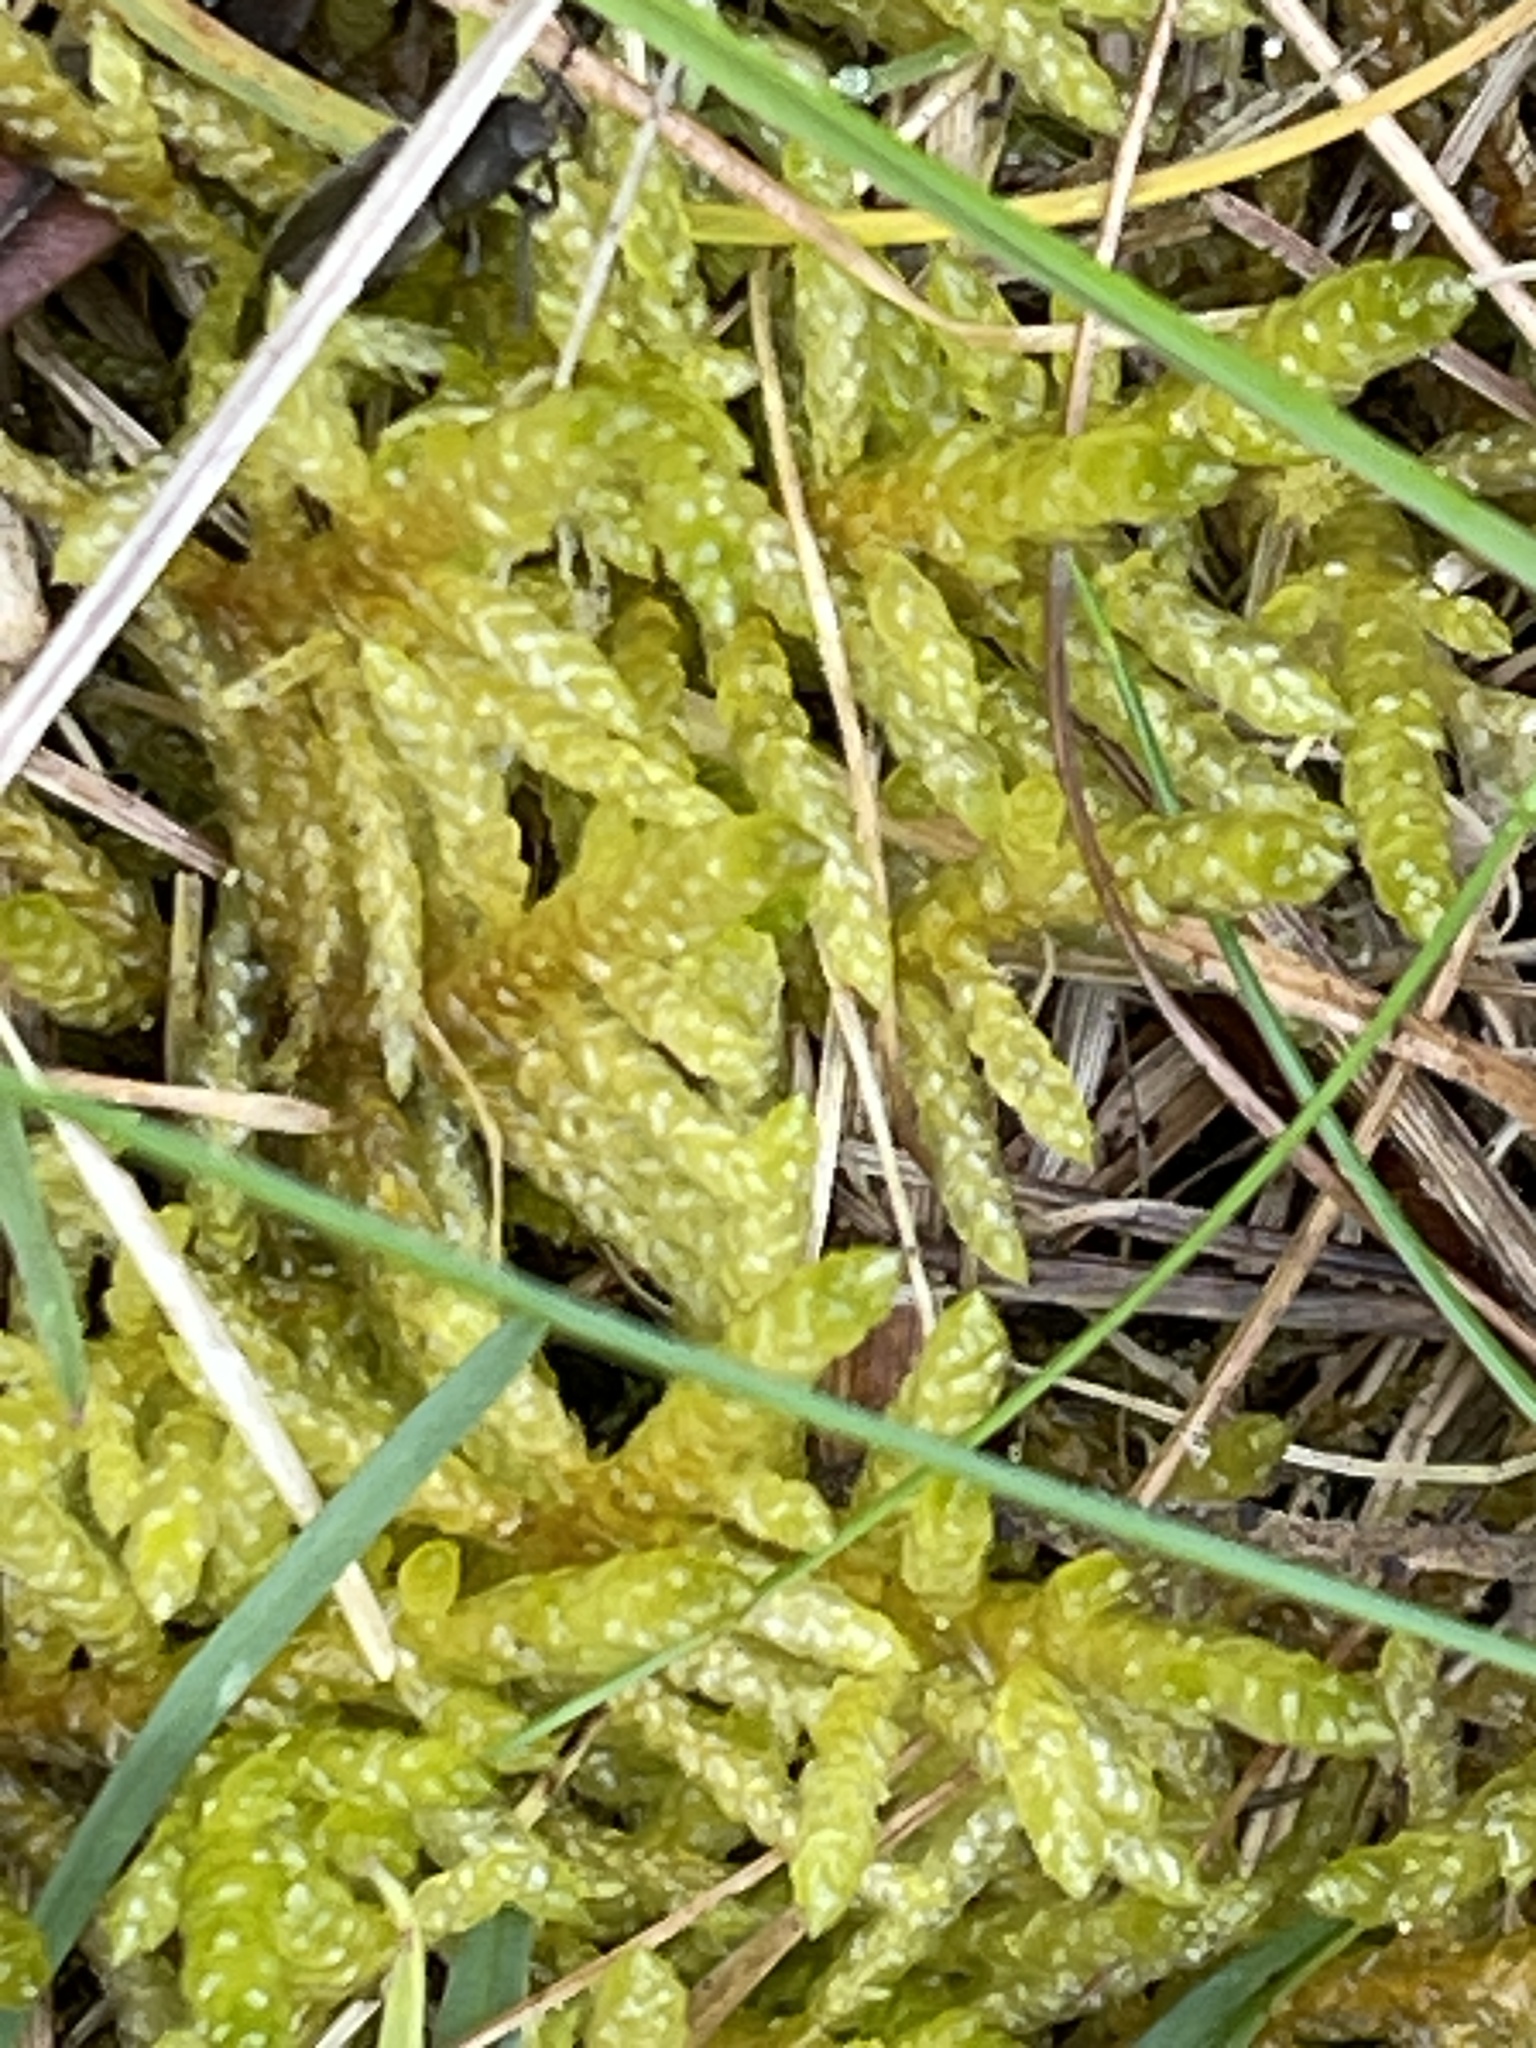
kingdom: Plantae
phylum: Bryophyta
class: Bryopsida
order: Hypnales
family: Brachytheciaceae
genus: Pseudoscleropodium
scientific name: Pseudoscleropodium purum
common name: Neat feather-moss
